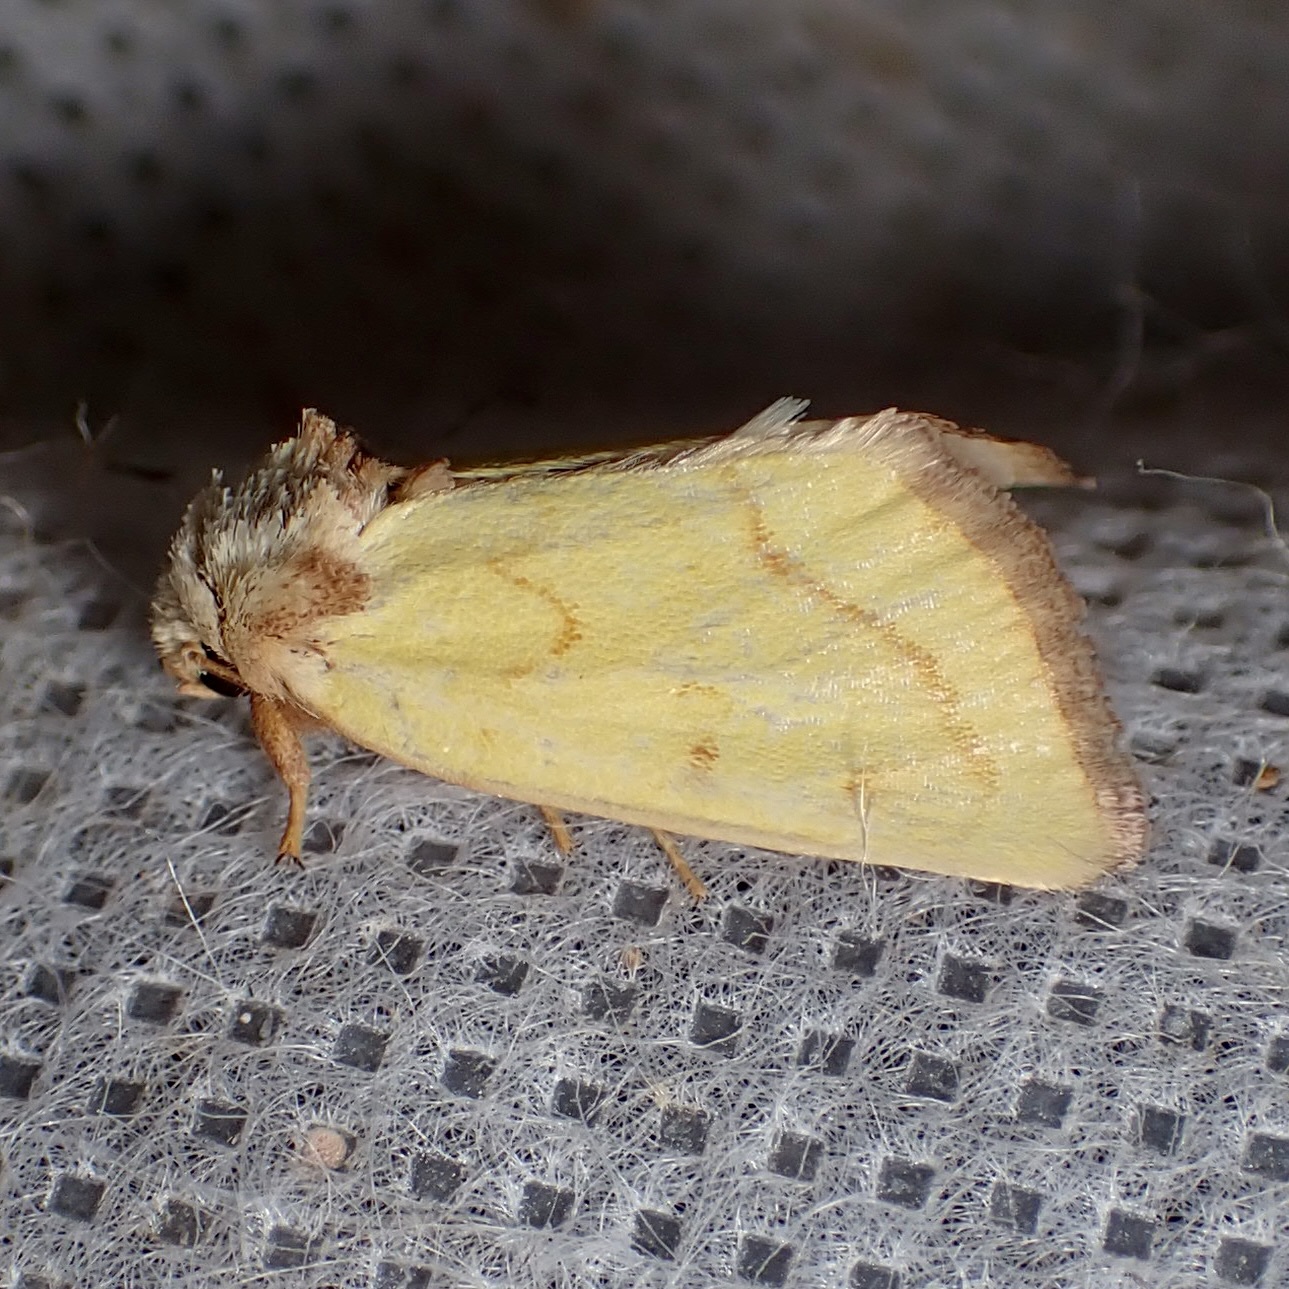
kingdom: Animalia
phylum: Arthropoda
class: Insecta
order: Lepidoptera
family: Noctuidae
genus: Nocloa
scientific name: Nocloa aliaga
